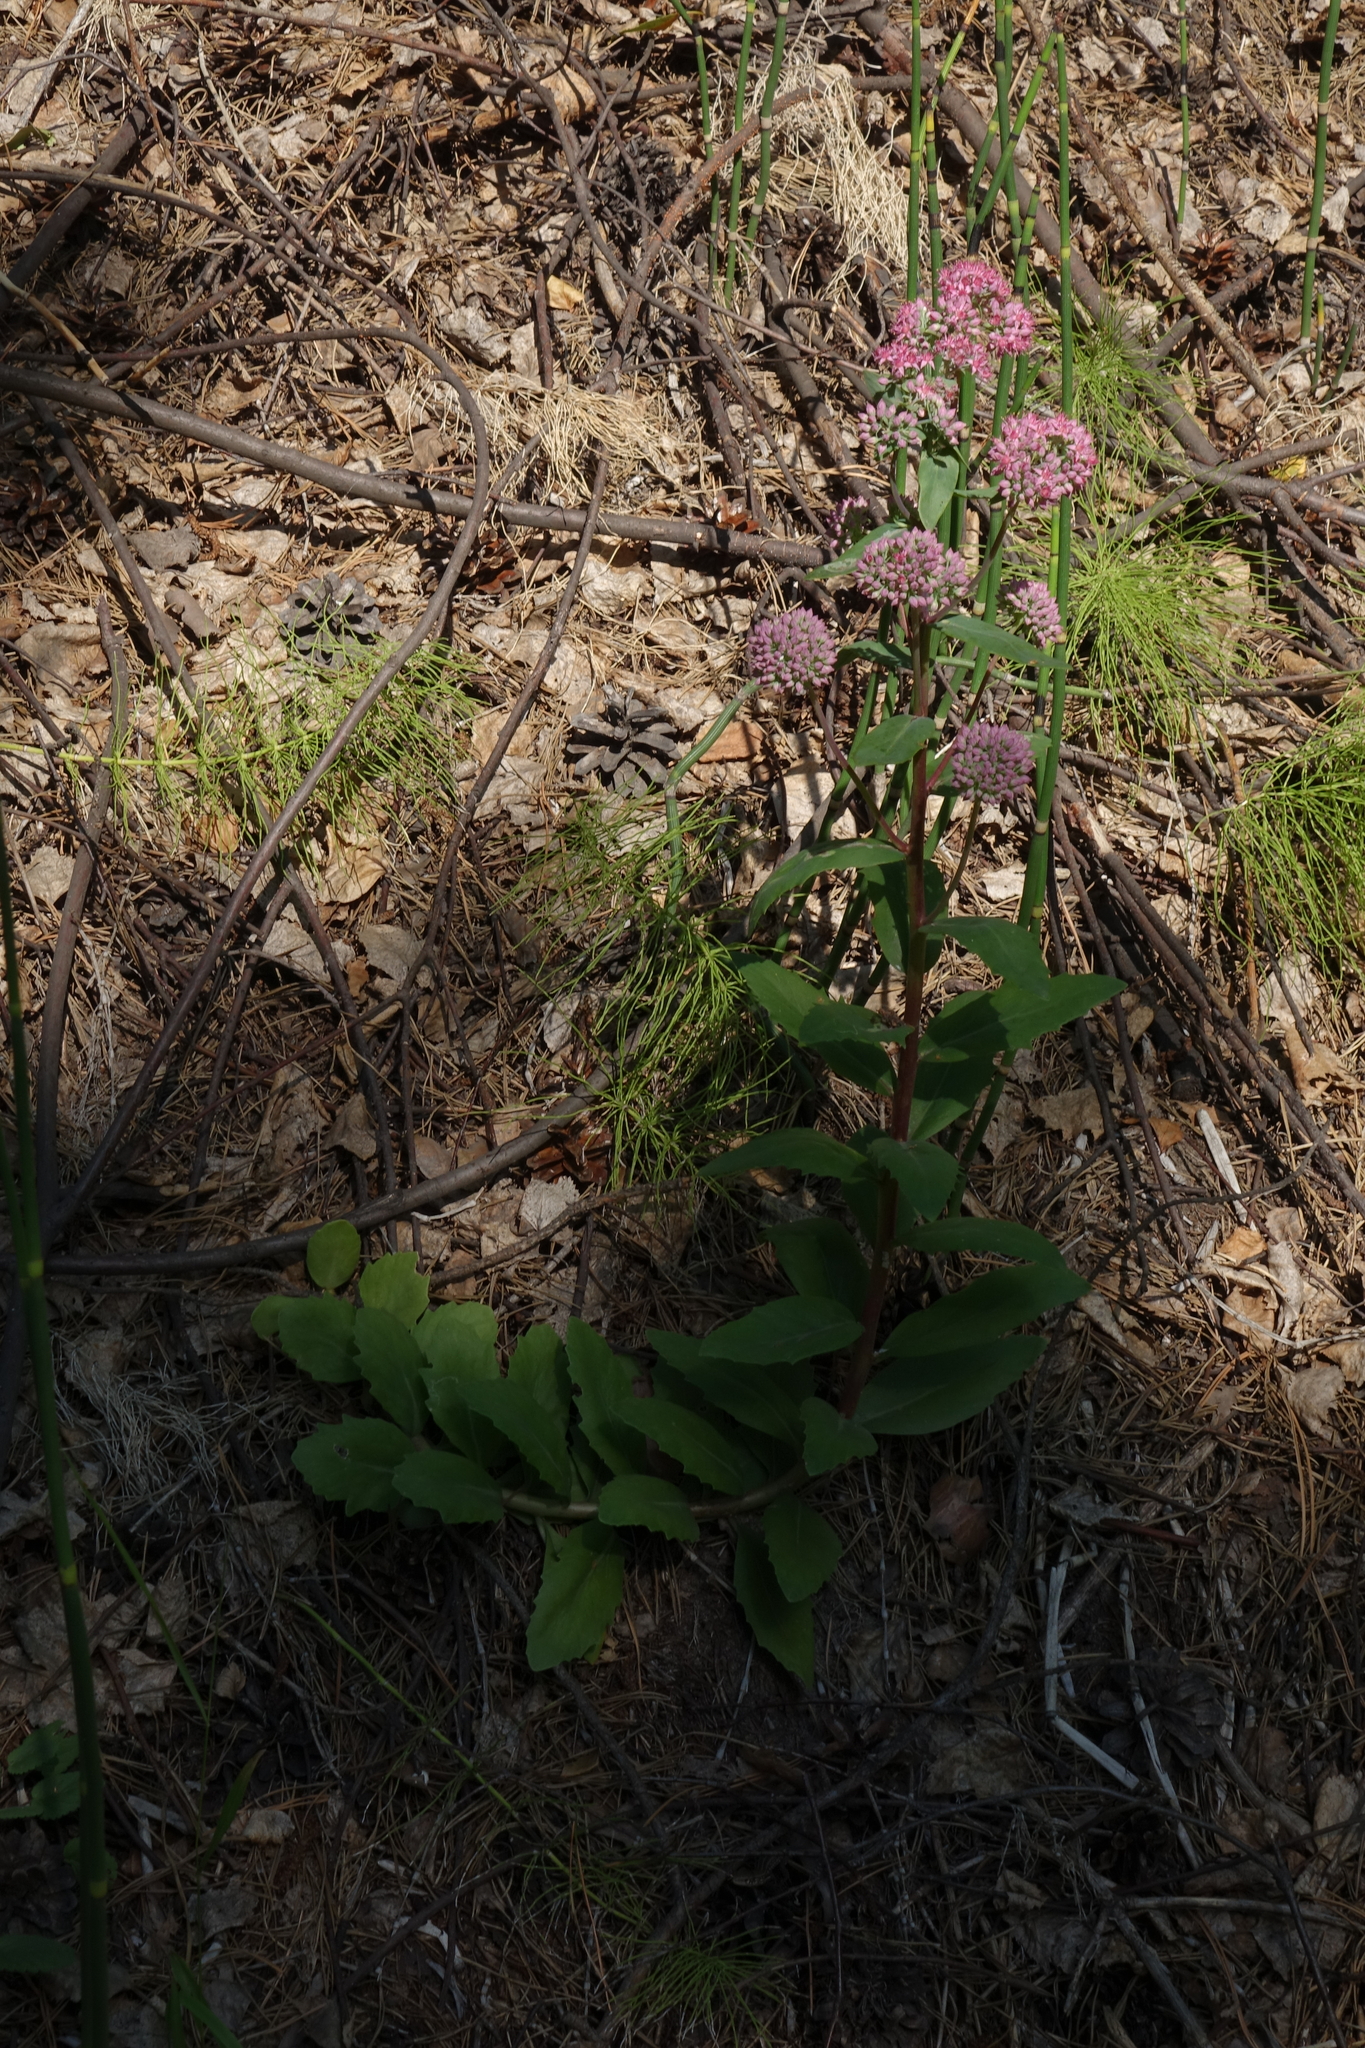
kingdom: Plantae
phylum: Tracheophyta
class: Magnoliopsida
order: Saxifragales
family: Crassulaceae
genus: Hylotelephium
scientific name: Hylotelephium telephium
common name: Live-forever
